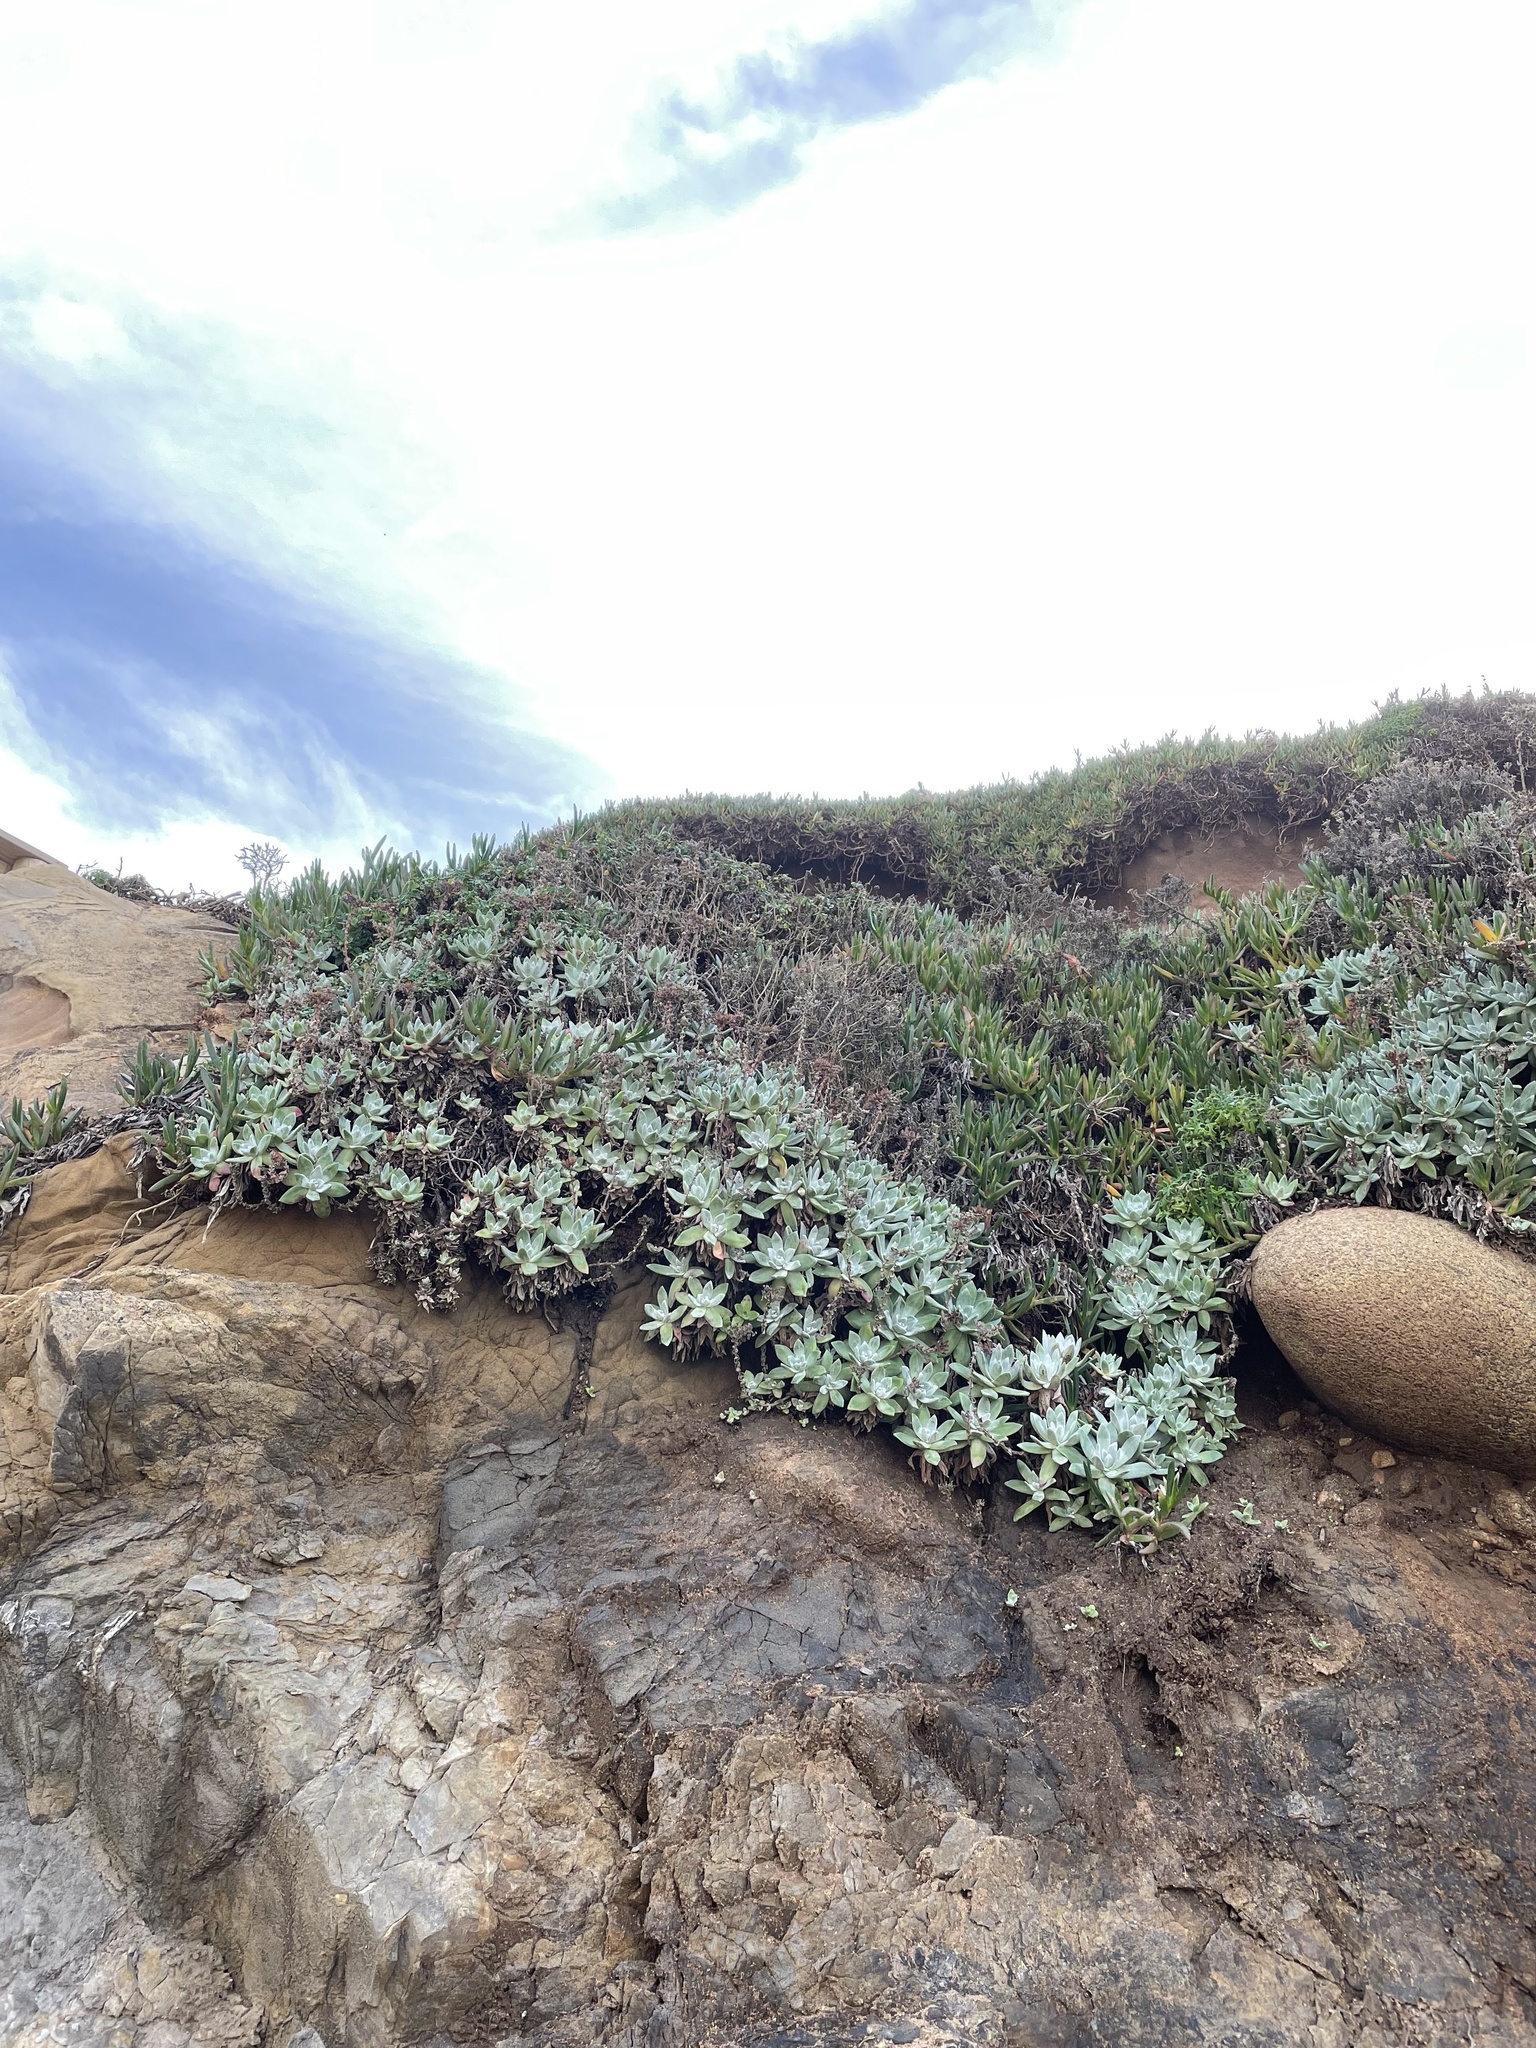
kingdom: Plantae
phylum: Tracheophyta
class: Magnoliopsida
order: Saxifragales
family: Crassulaceae
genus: Dudleya
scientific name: Dudleya farinosa
